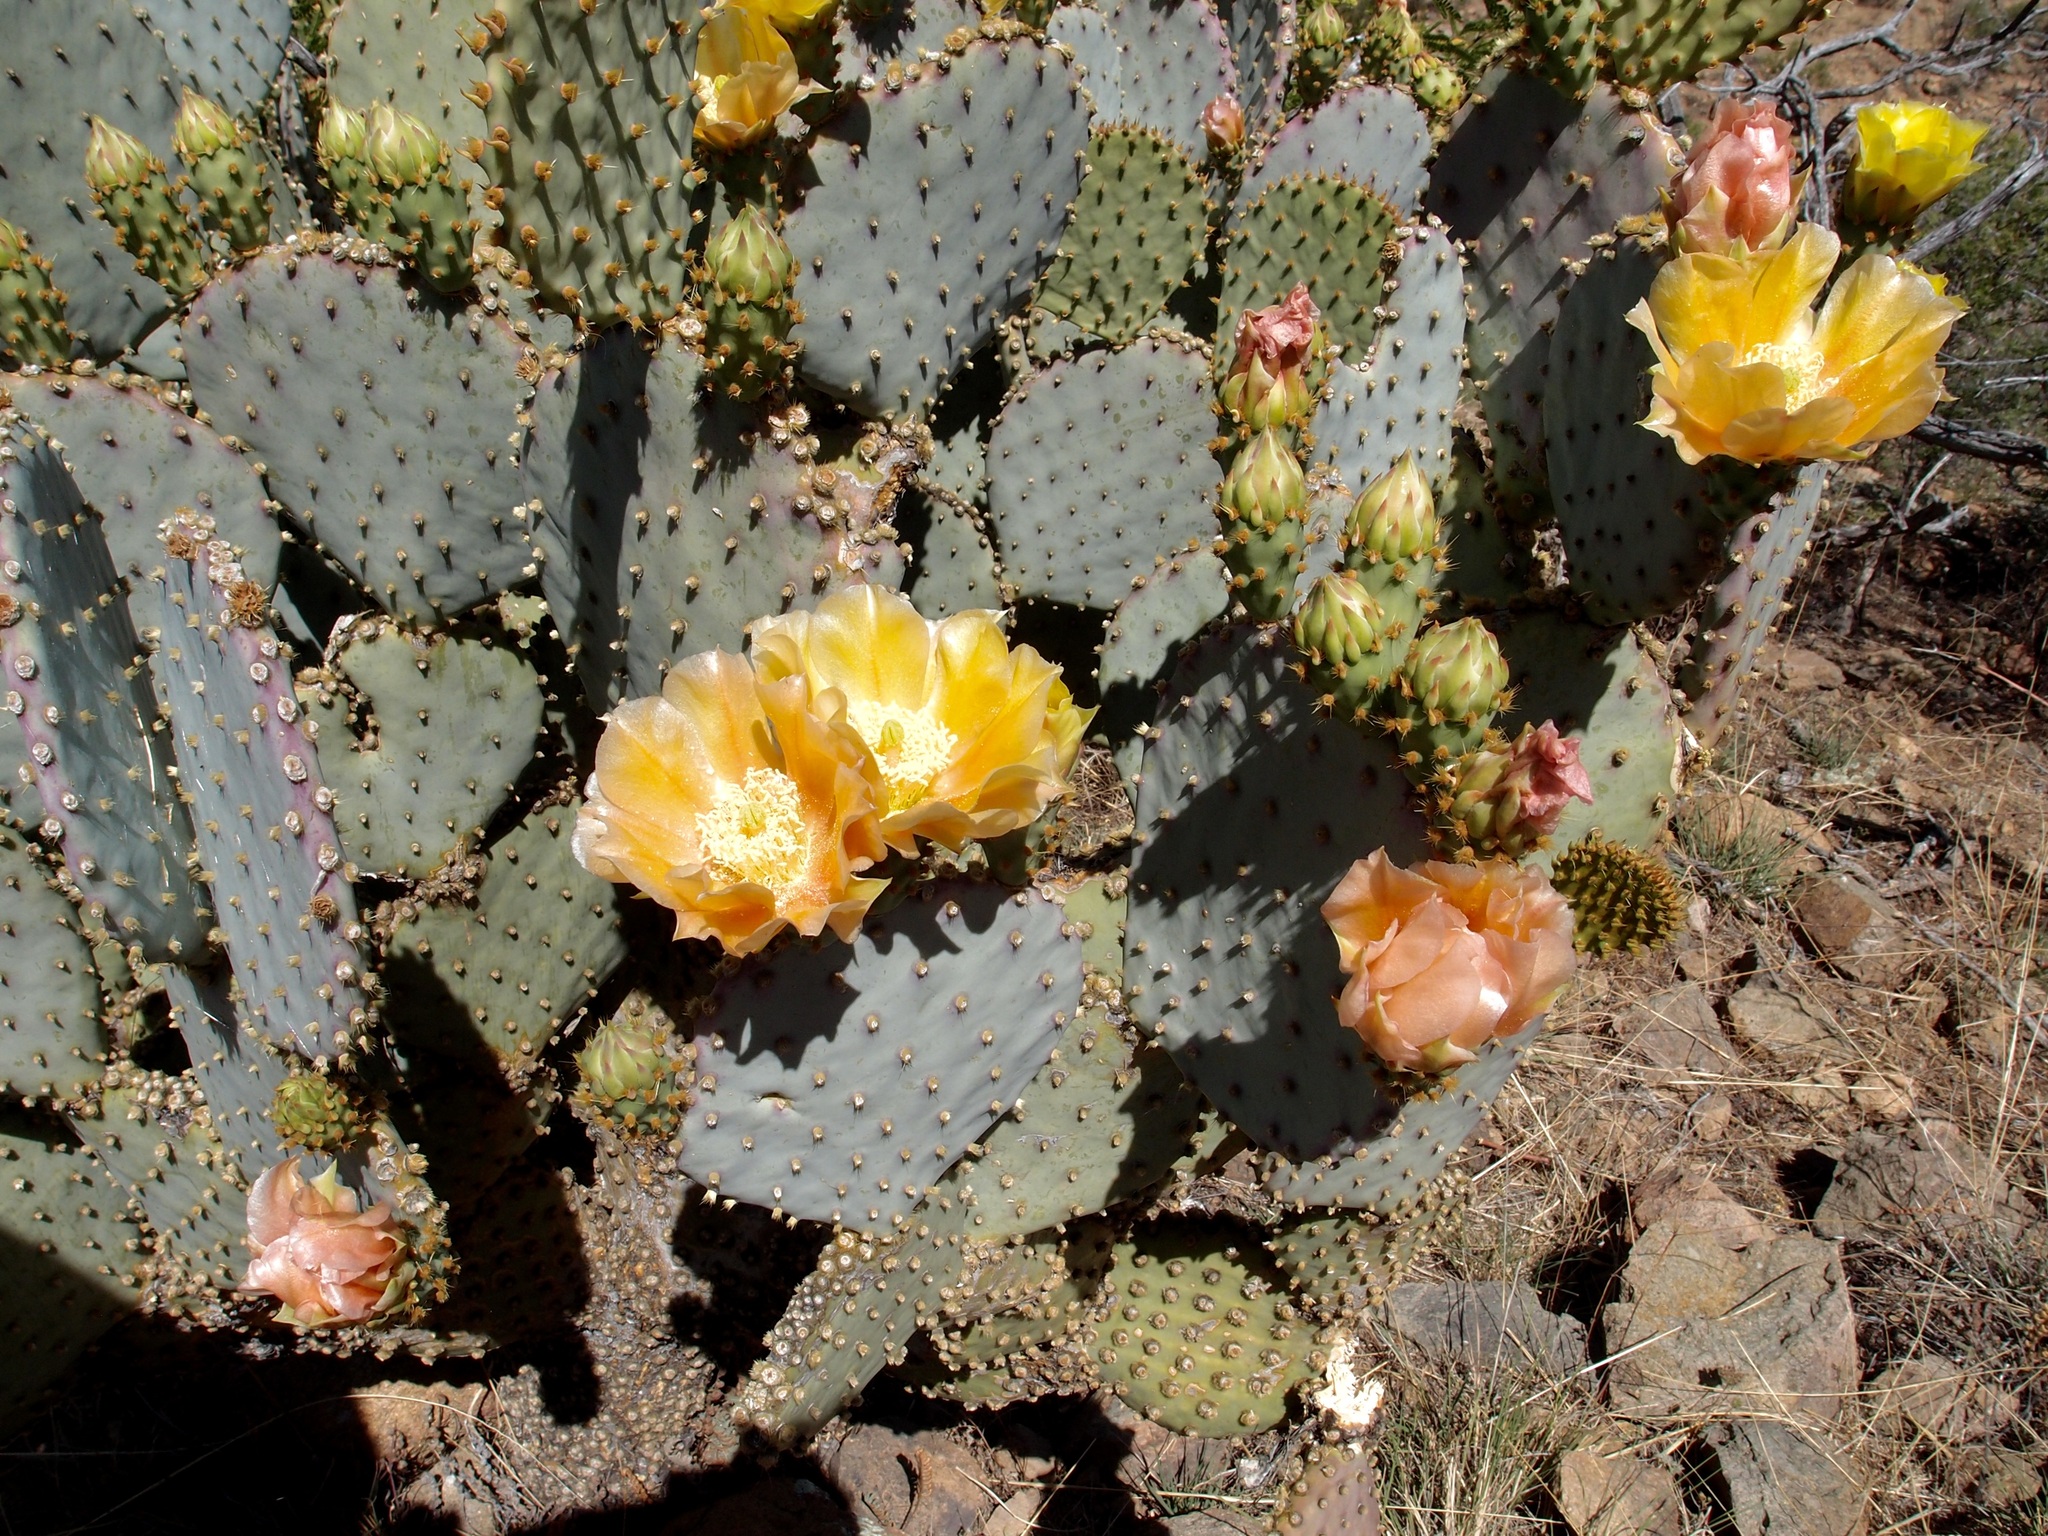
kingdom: Plantae
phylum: Tracheophyta
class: Magnoliopsida
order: Caryophyllales
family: Cactaceae
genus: Opuntia
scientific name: Opuntia gosseliniana
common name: Violet prickly-pear
